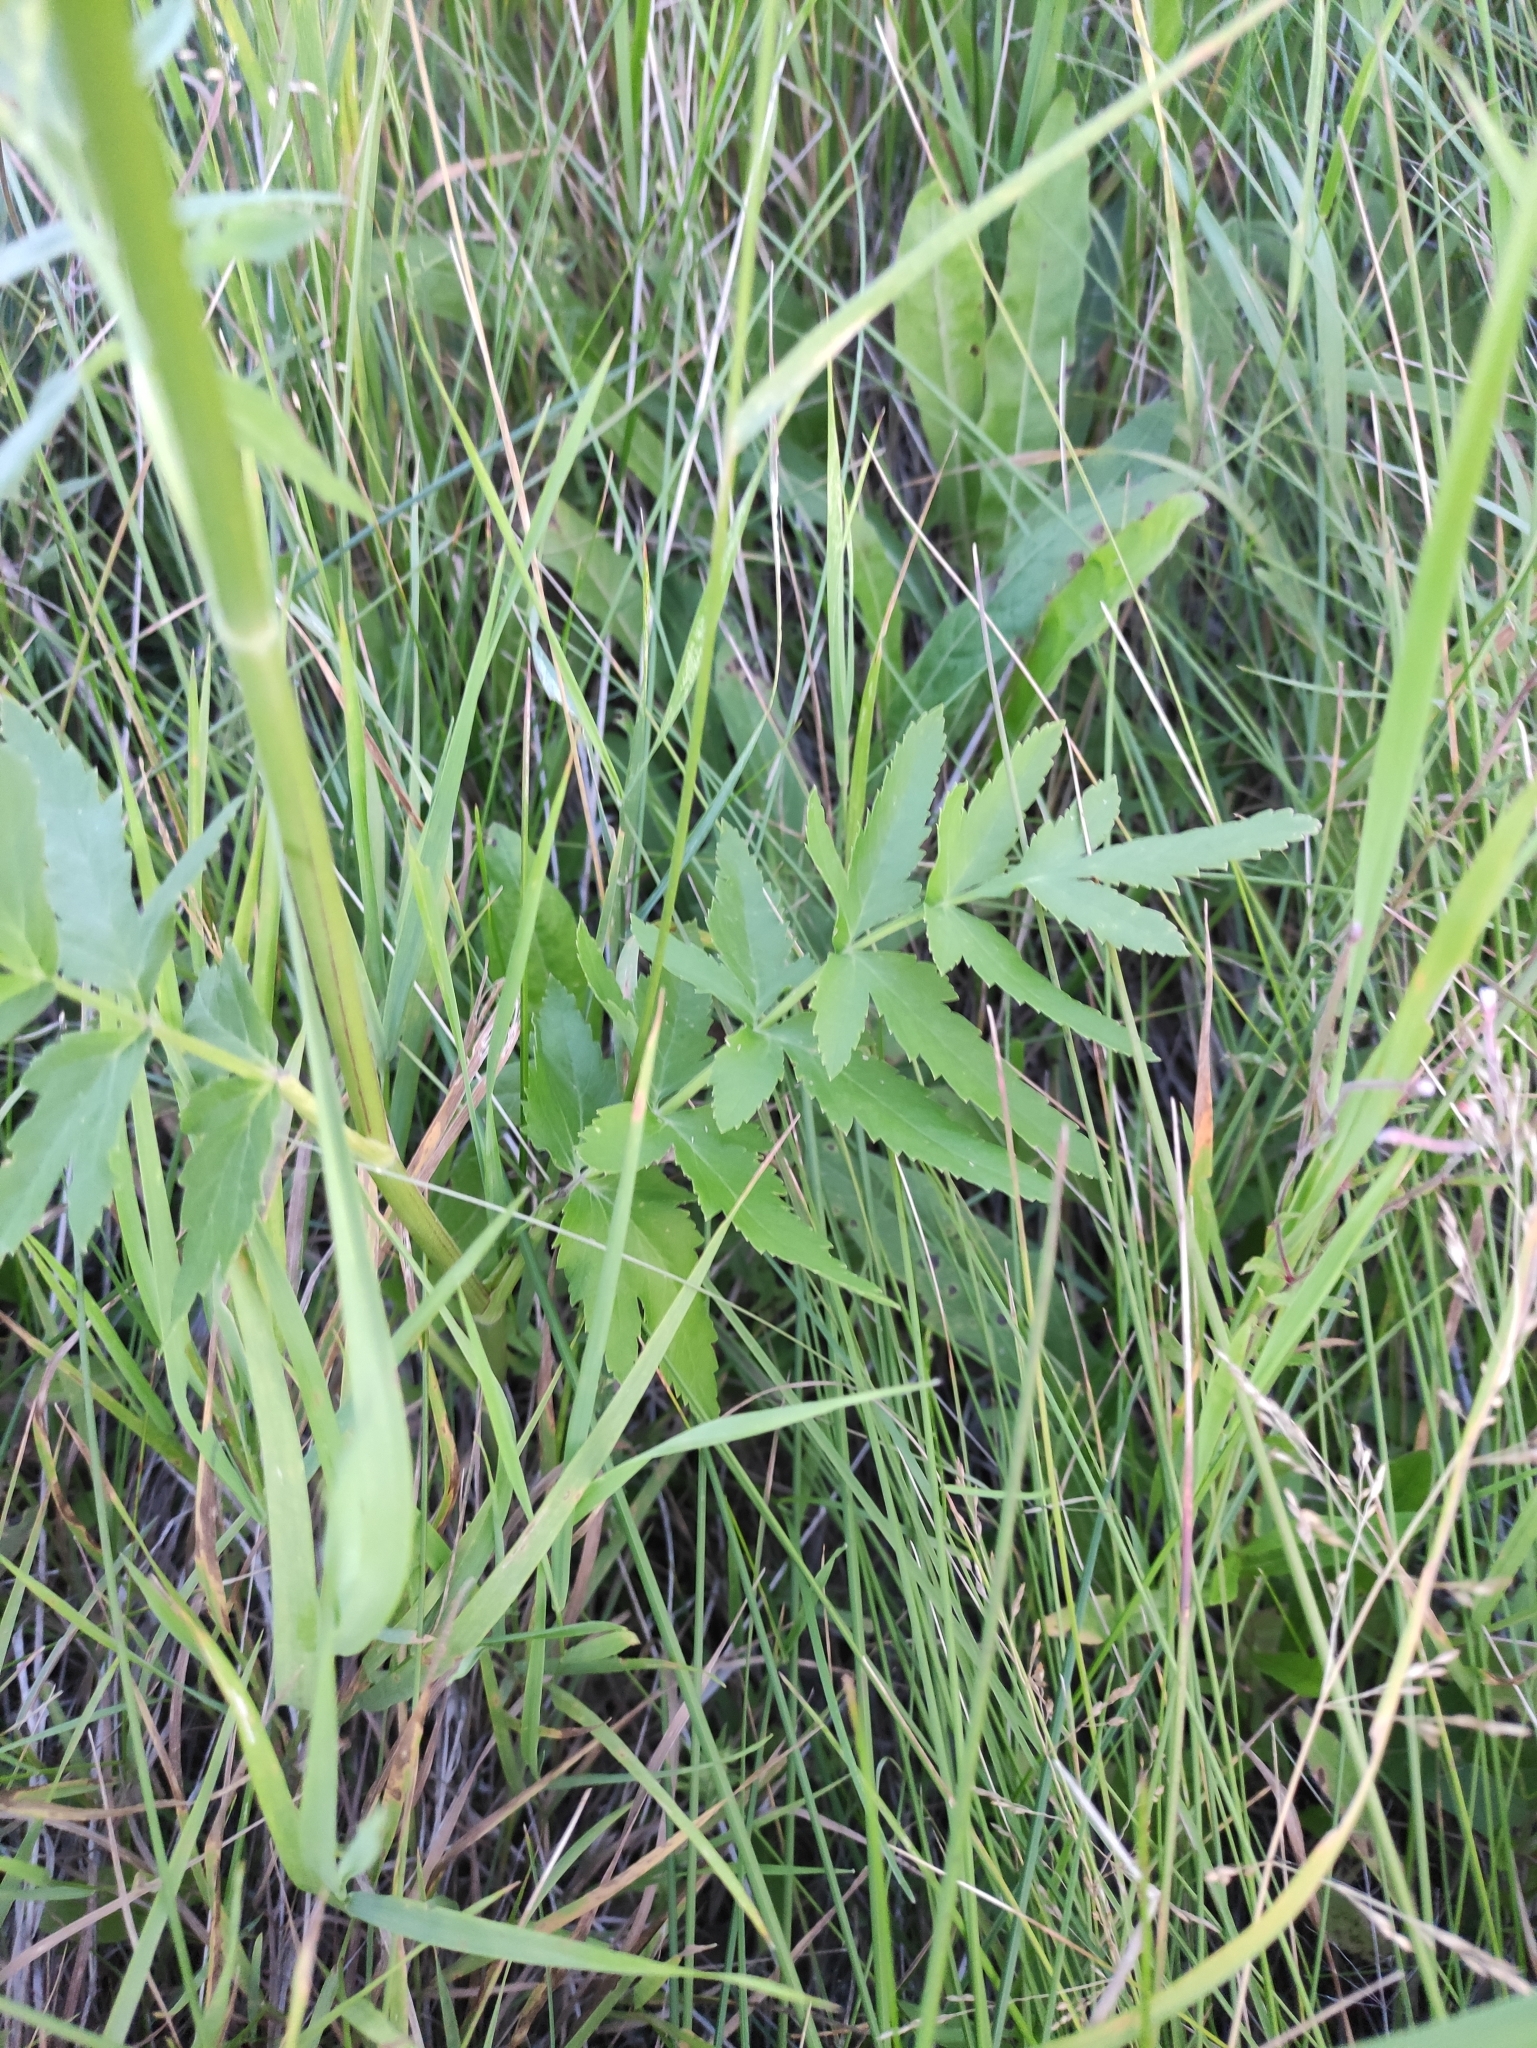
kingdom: Plantae
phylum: Tracheophyta
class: Magnoliopsida
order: Apiales
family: Apiaceae
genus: Pastinaca
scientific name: Pastinaca sativa
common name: Wild parsnip
